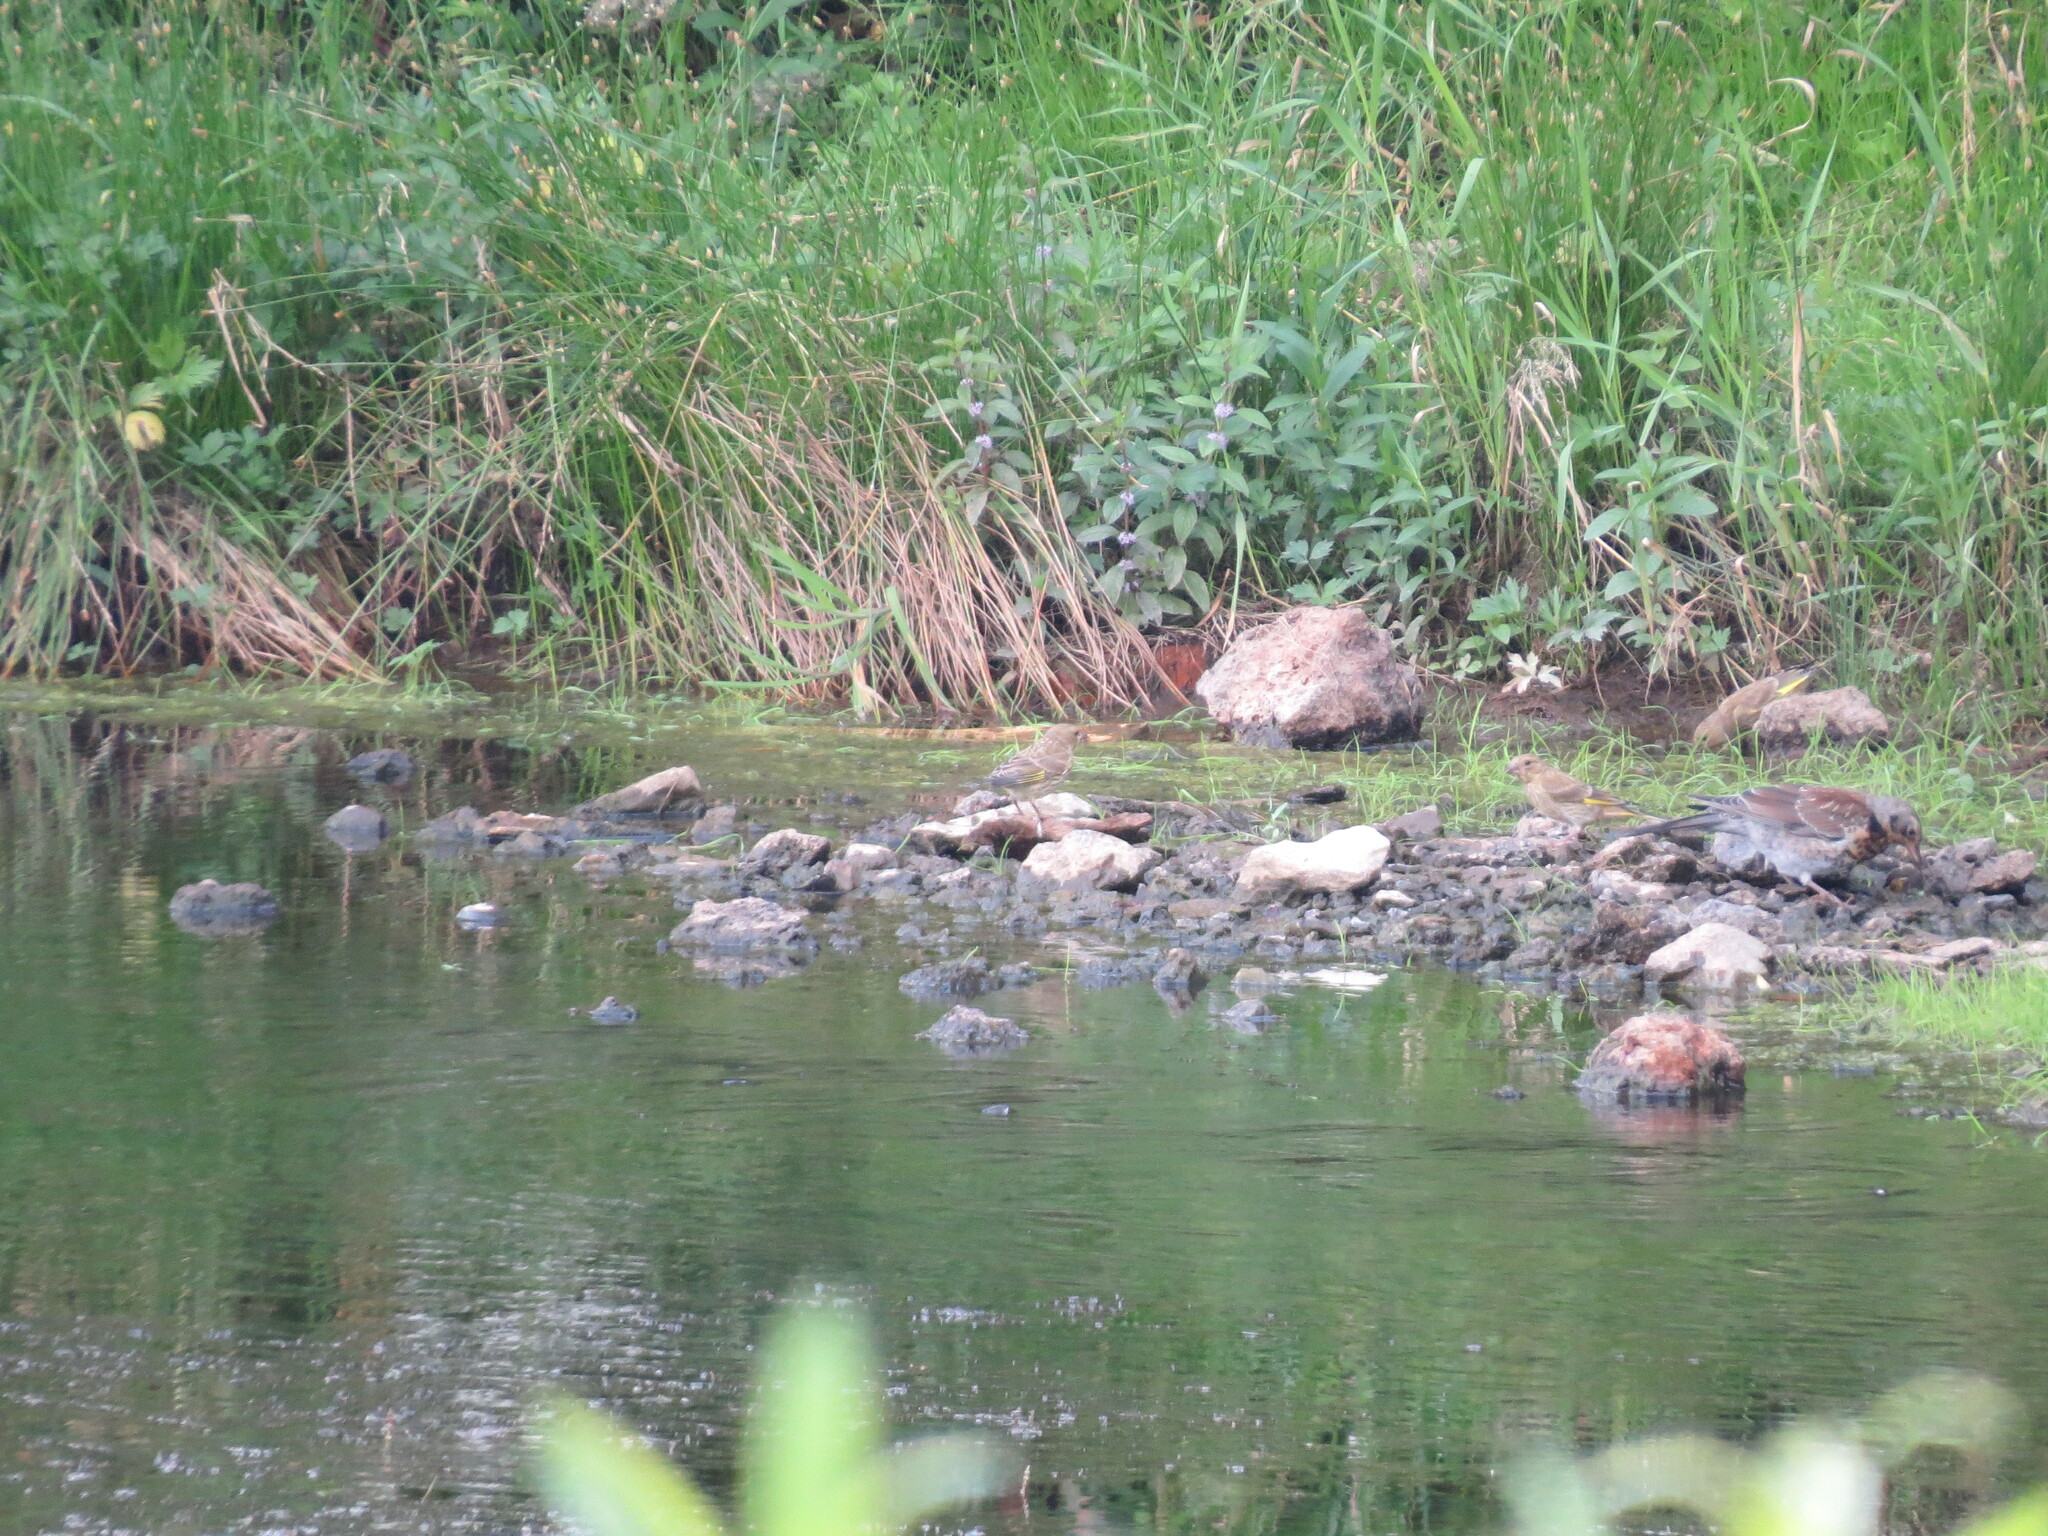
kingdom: Plantae
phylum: Tracheophyta
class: Liliopsida
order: Poales
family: Poaceae
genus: Chloris
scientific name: Chloris chloris
